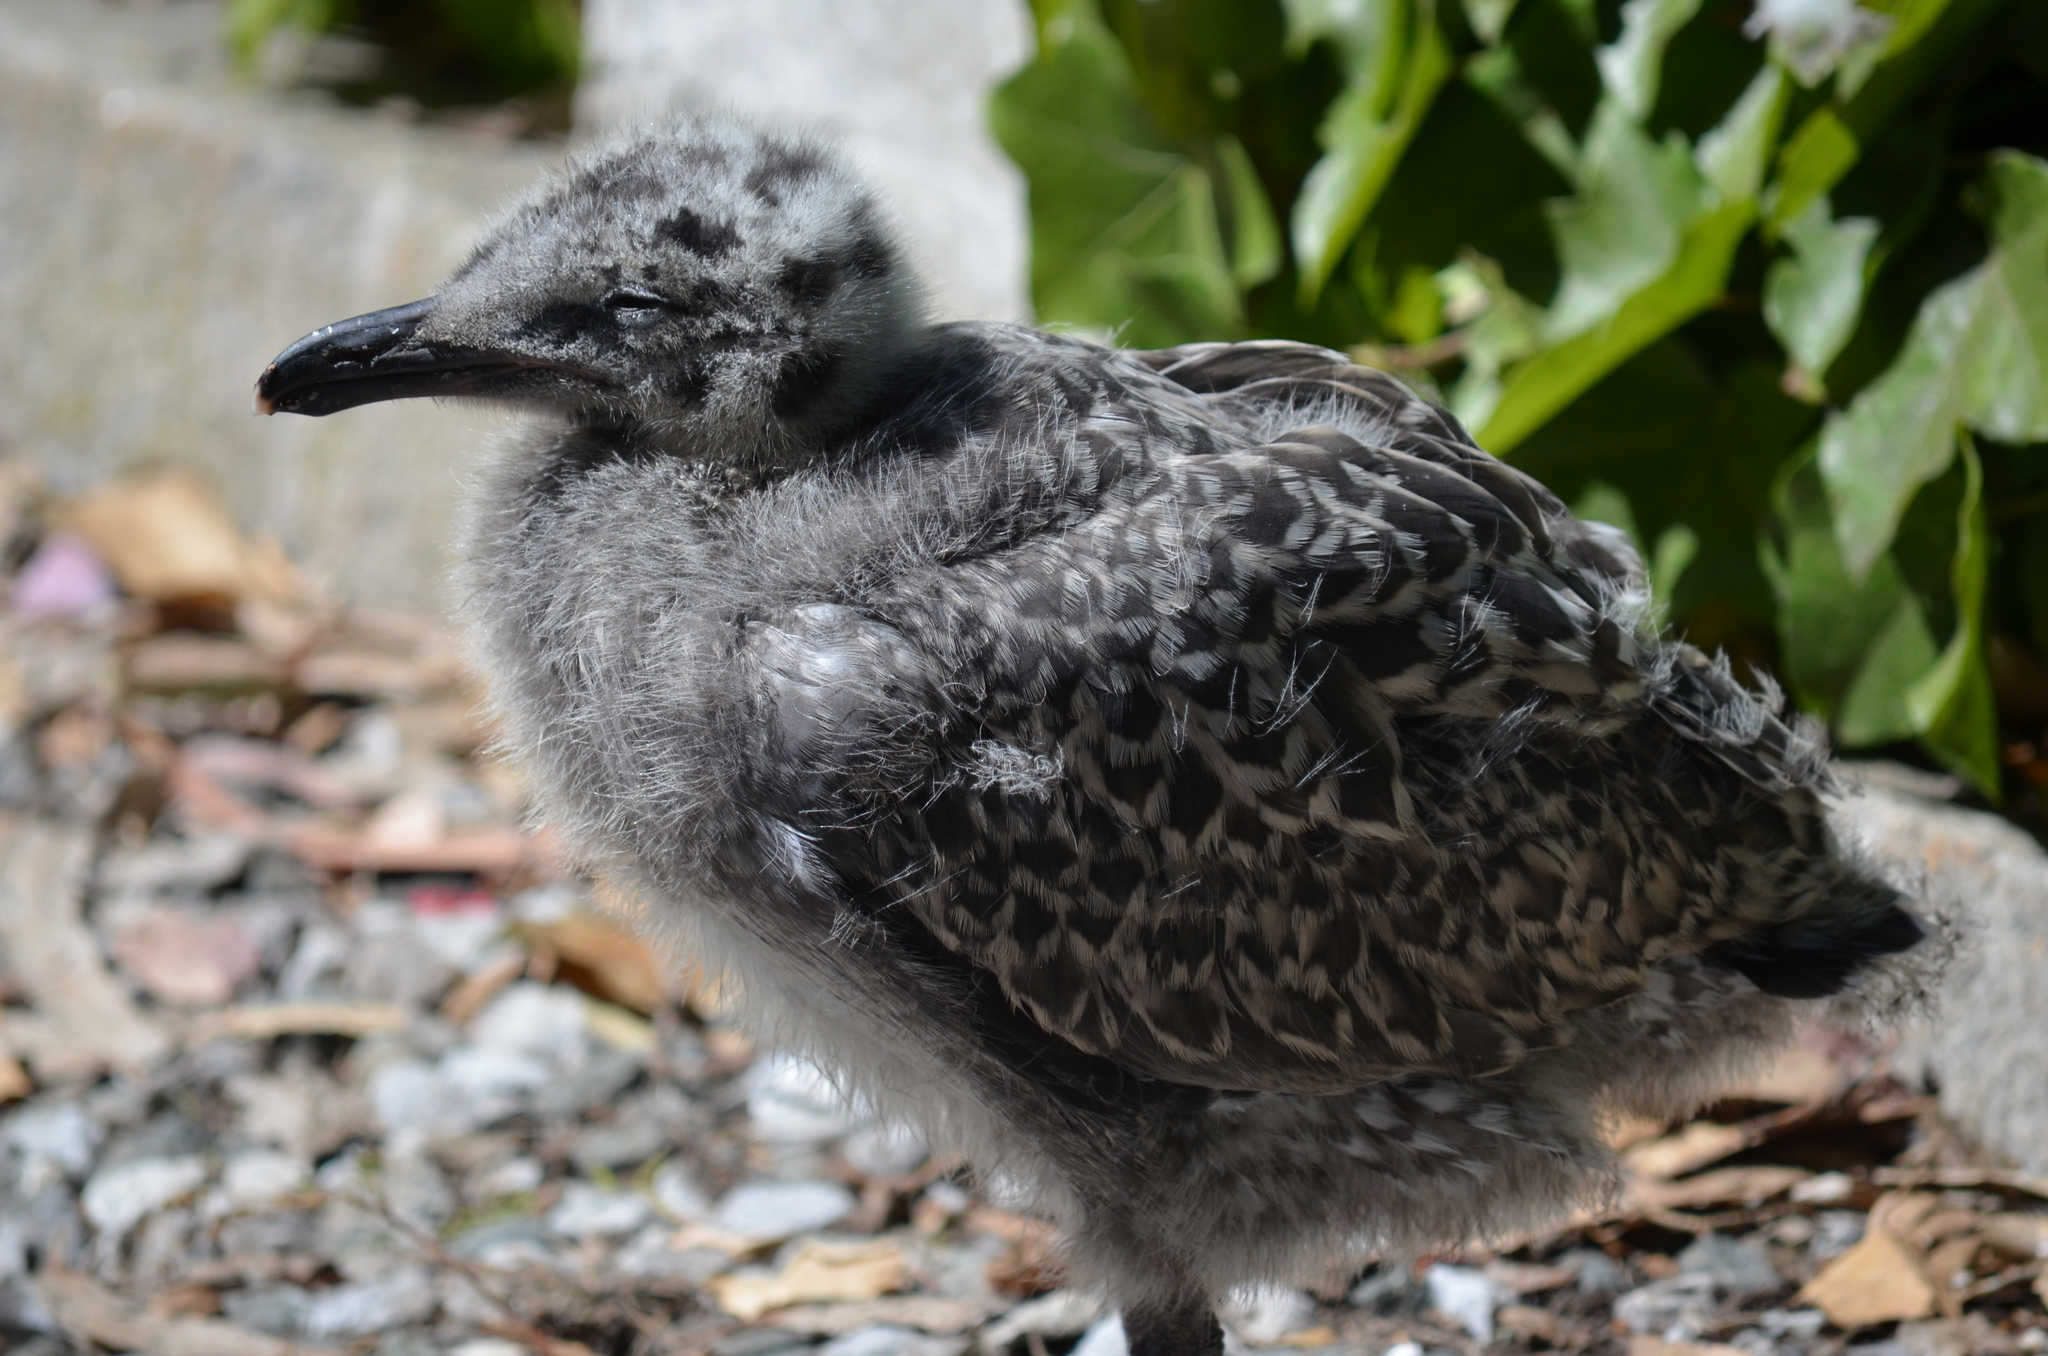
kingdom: Animalia
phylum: Chordata
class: Aves
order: Charadriiformes
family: Laridae
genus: Larus
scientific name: Larus occidentalis
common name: Western gull
